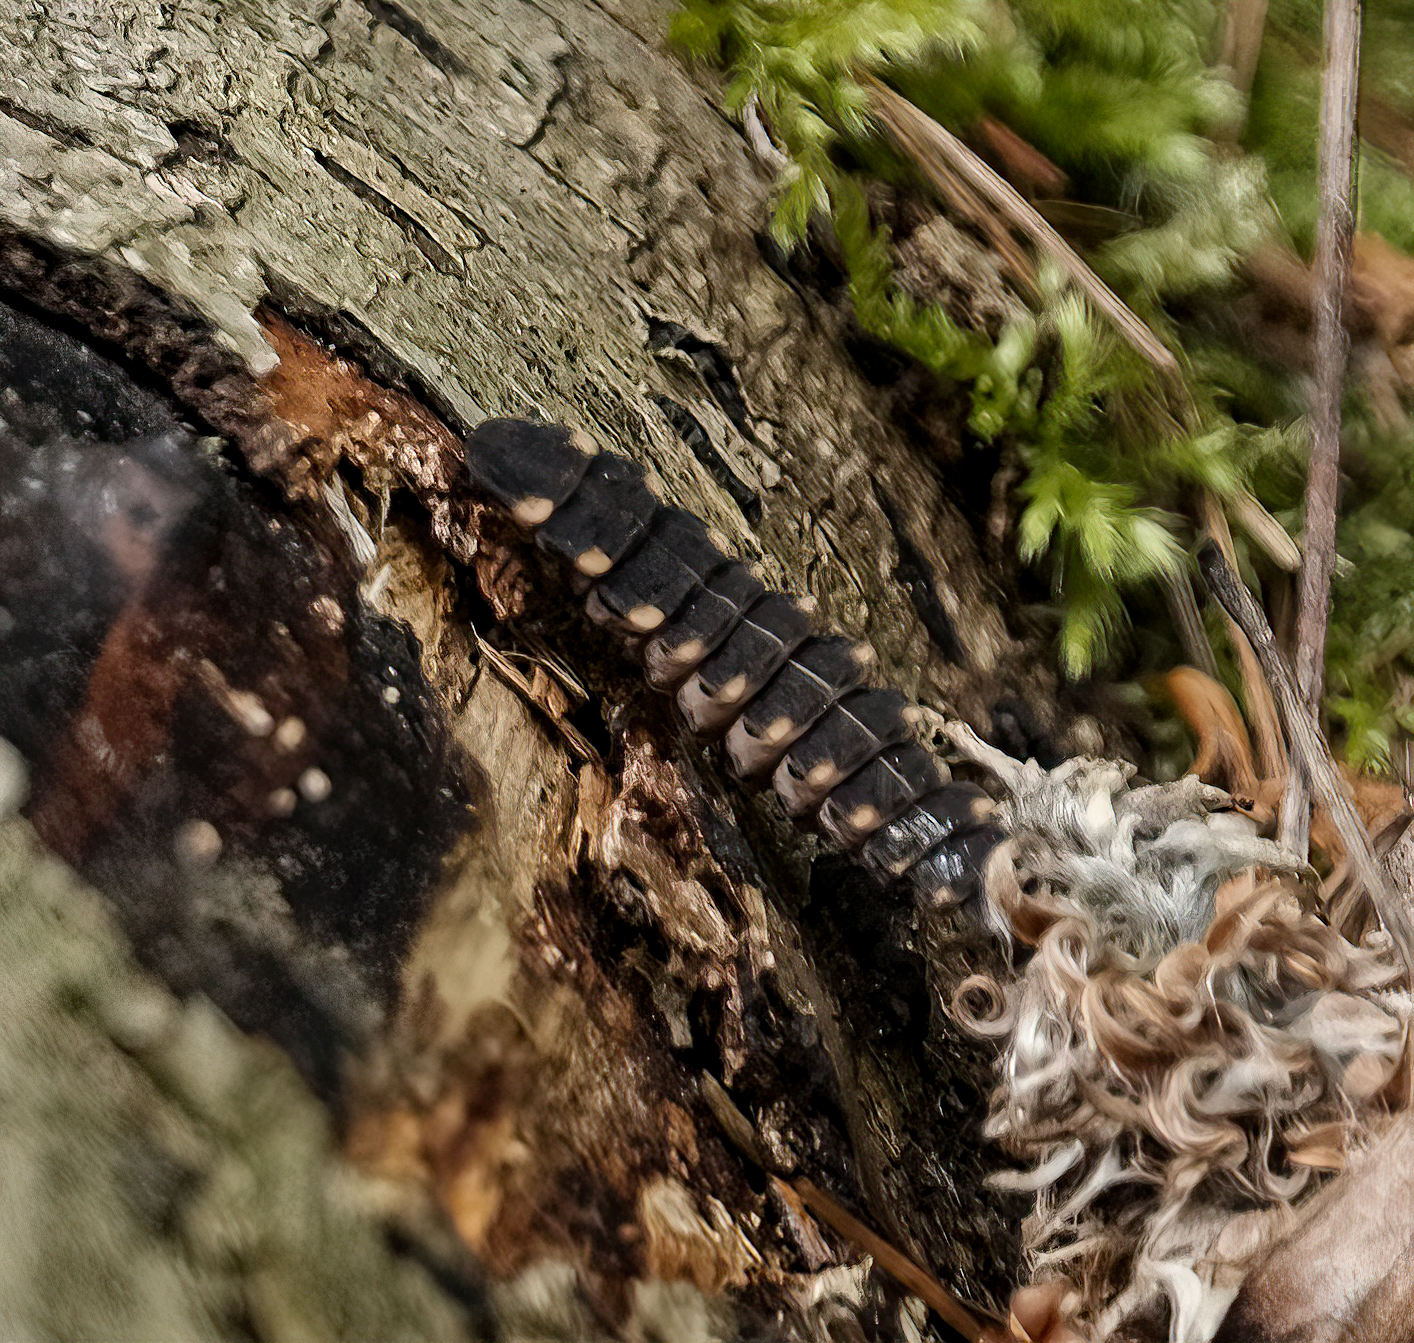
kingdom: Animalia
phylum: Arthropoda
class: Insecta
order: Coleoptera
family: Lampyridae
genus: Lampyris
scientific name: Lampyris noctiluca
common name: Glow-worm
